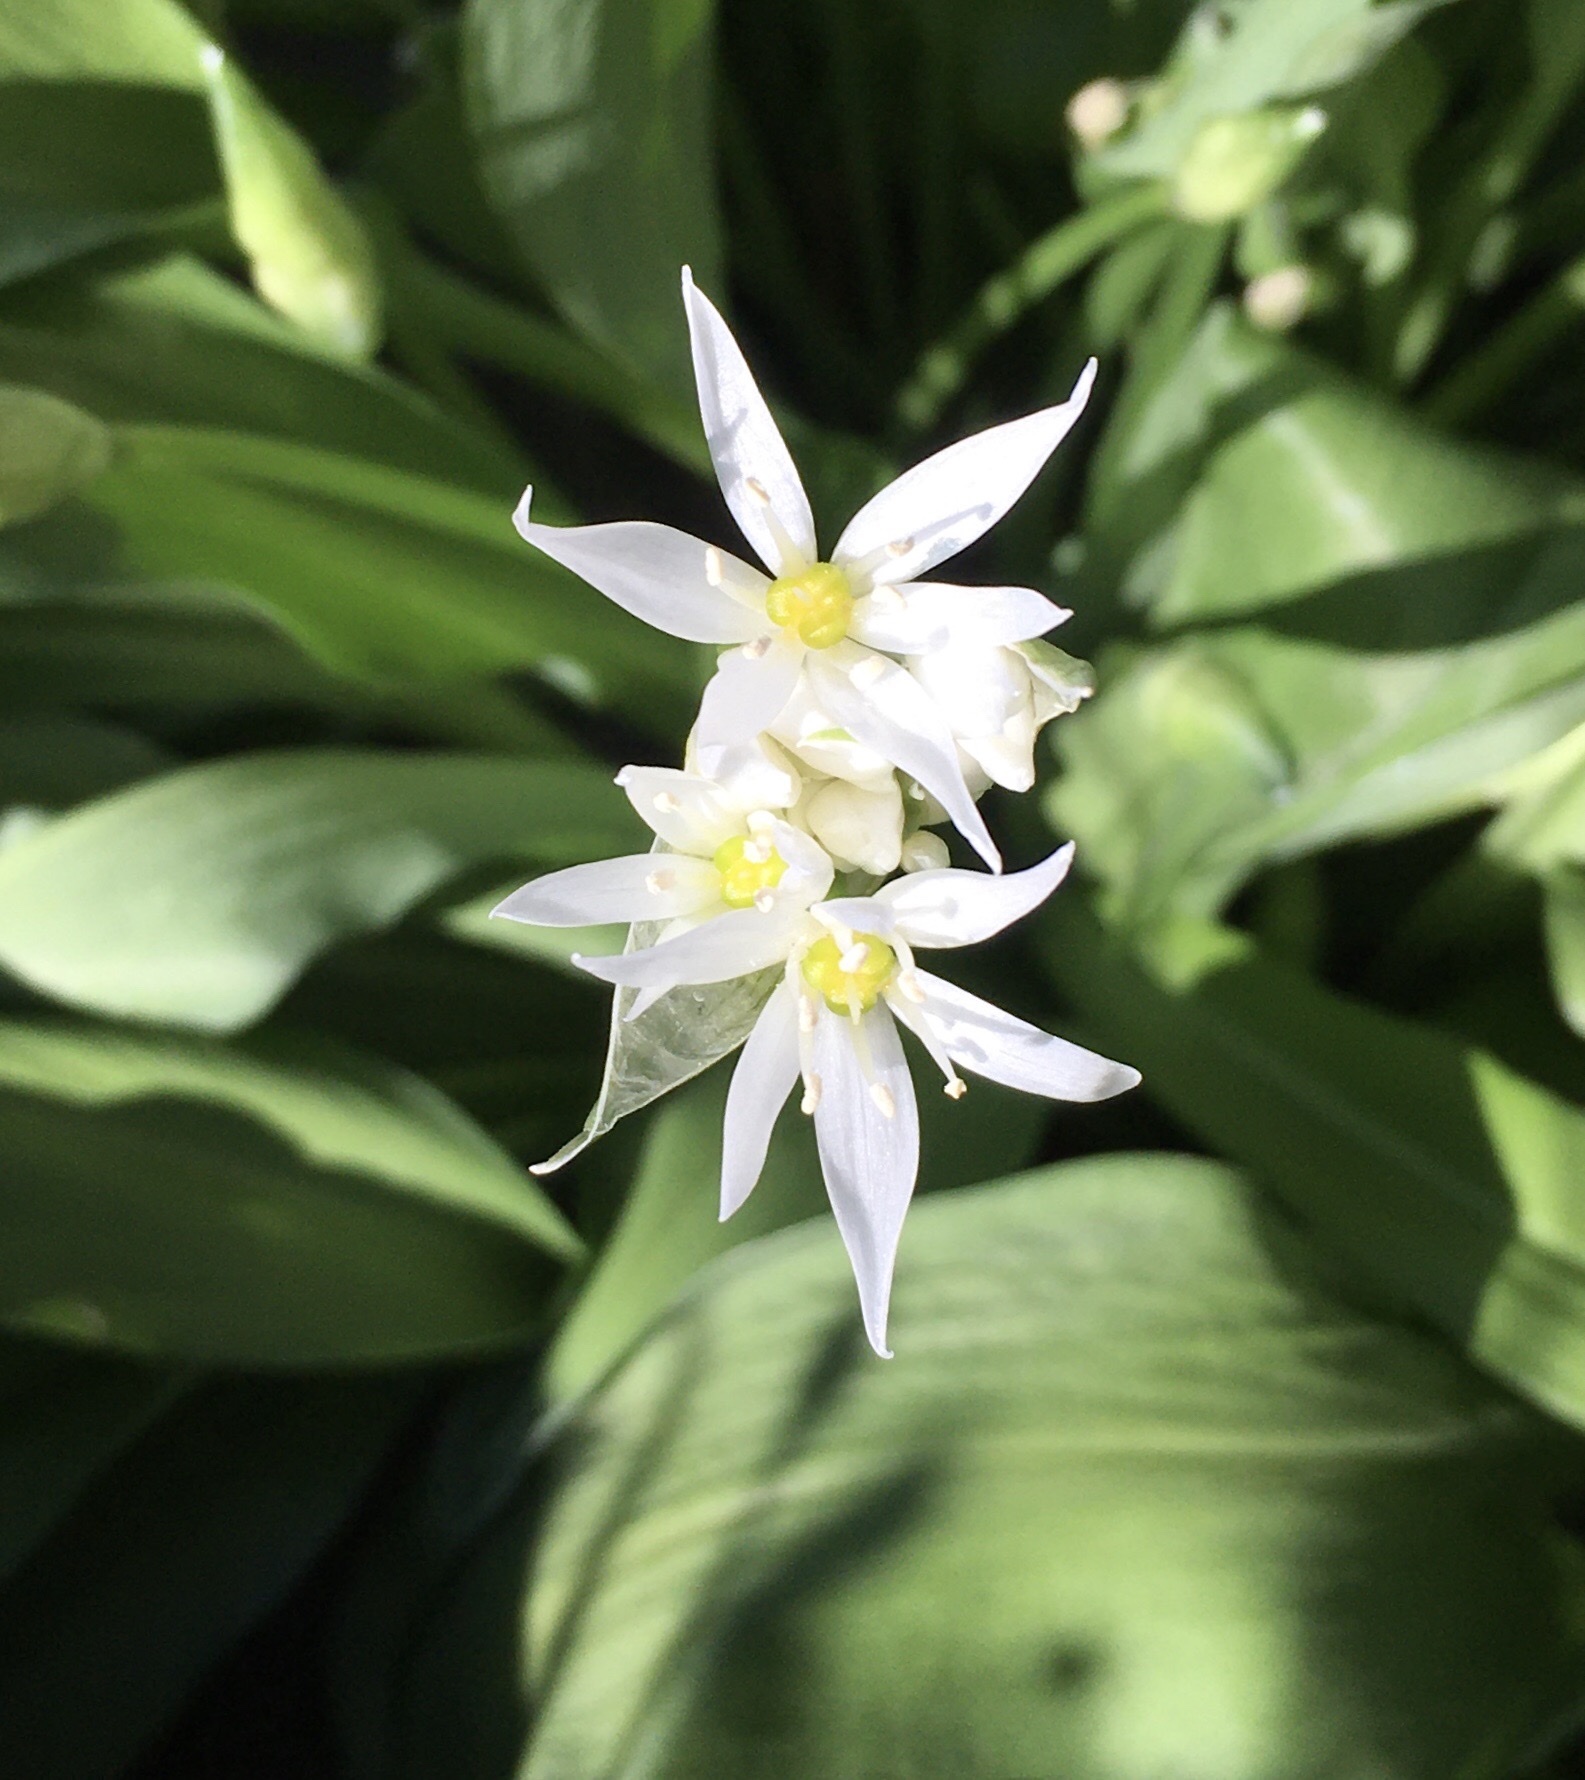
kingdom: Plantae
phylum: Tracheophyta
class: Liliopsida
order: Asparagales
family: Amaryllidaceae
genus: Allium
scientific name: Allium ursinum
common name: Ramsons
